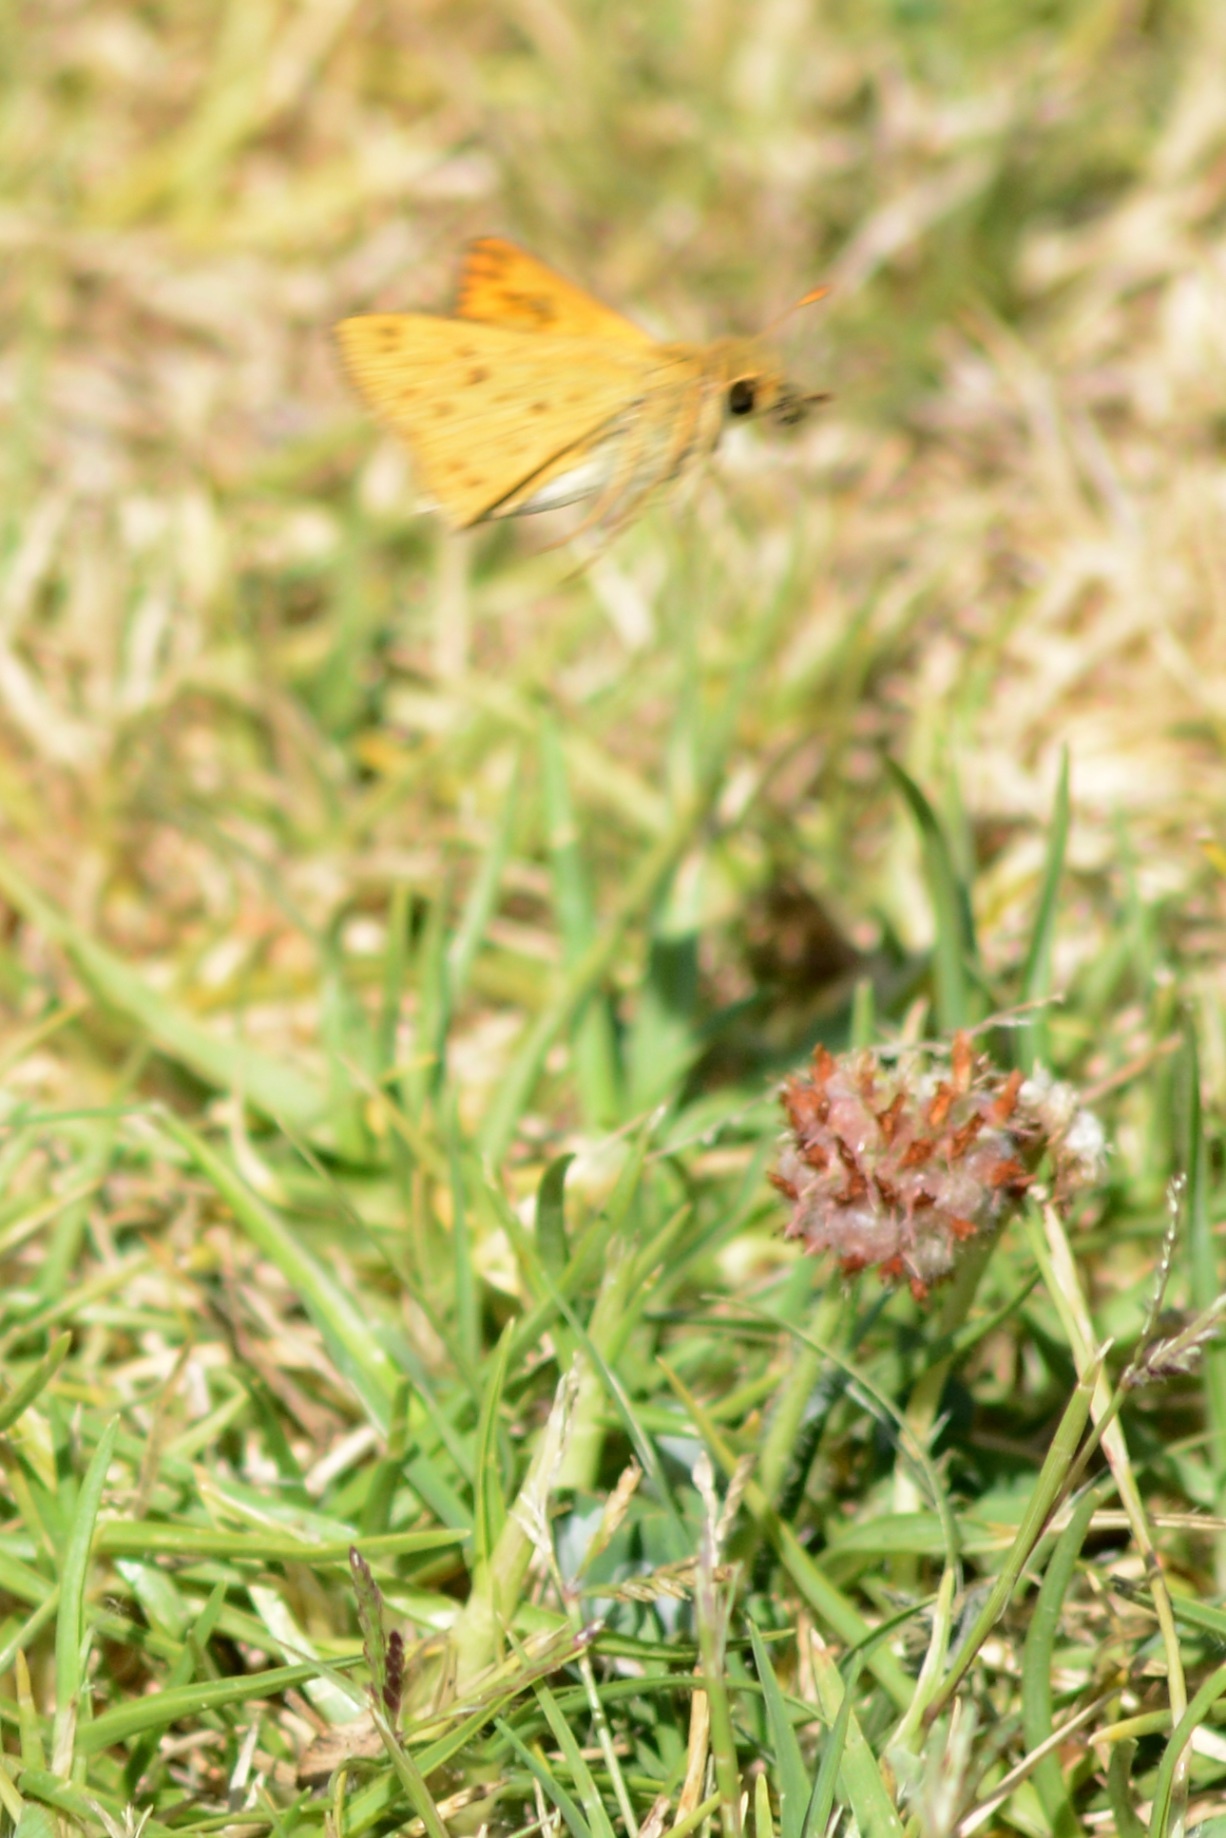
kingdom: Animalia
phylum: Arthropoda
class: Insecta
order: Lepidoptera
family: Hesperiidae
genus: Hylephila
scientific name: Hylephila phyleus
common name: Fiery skipper
